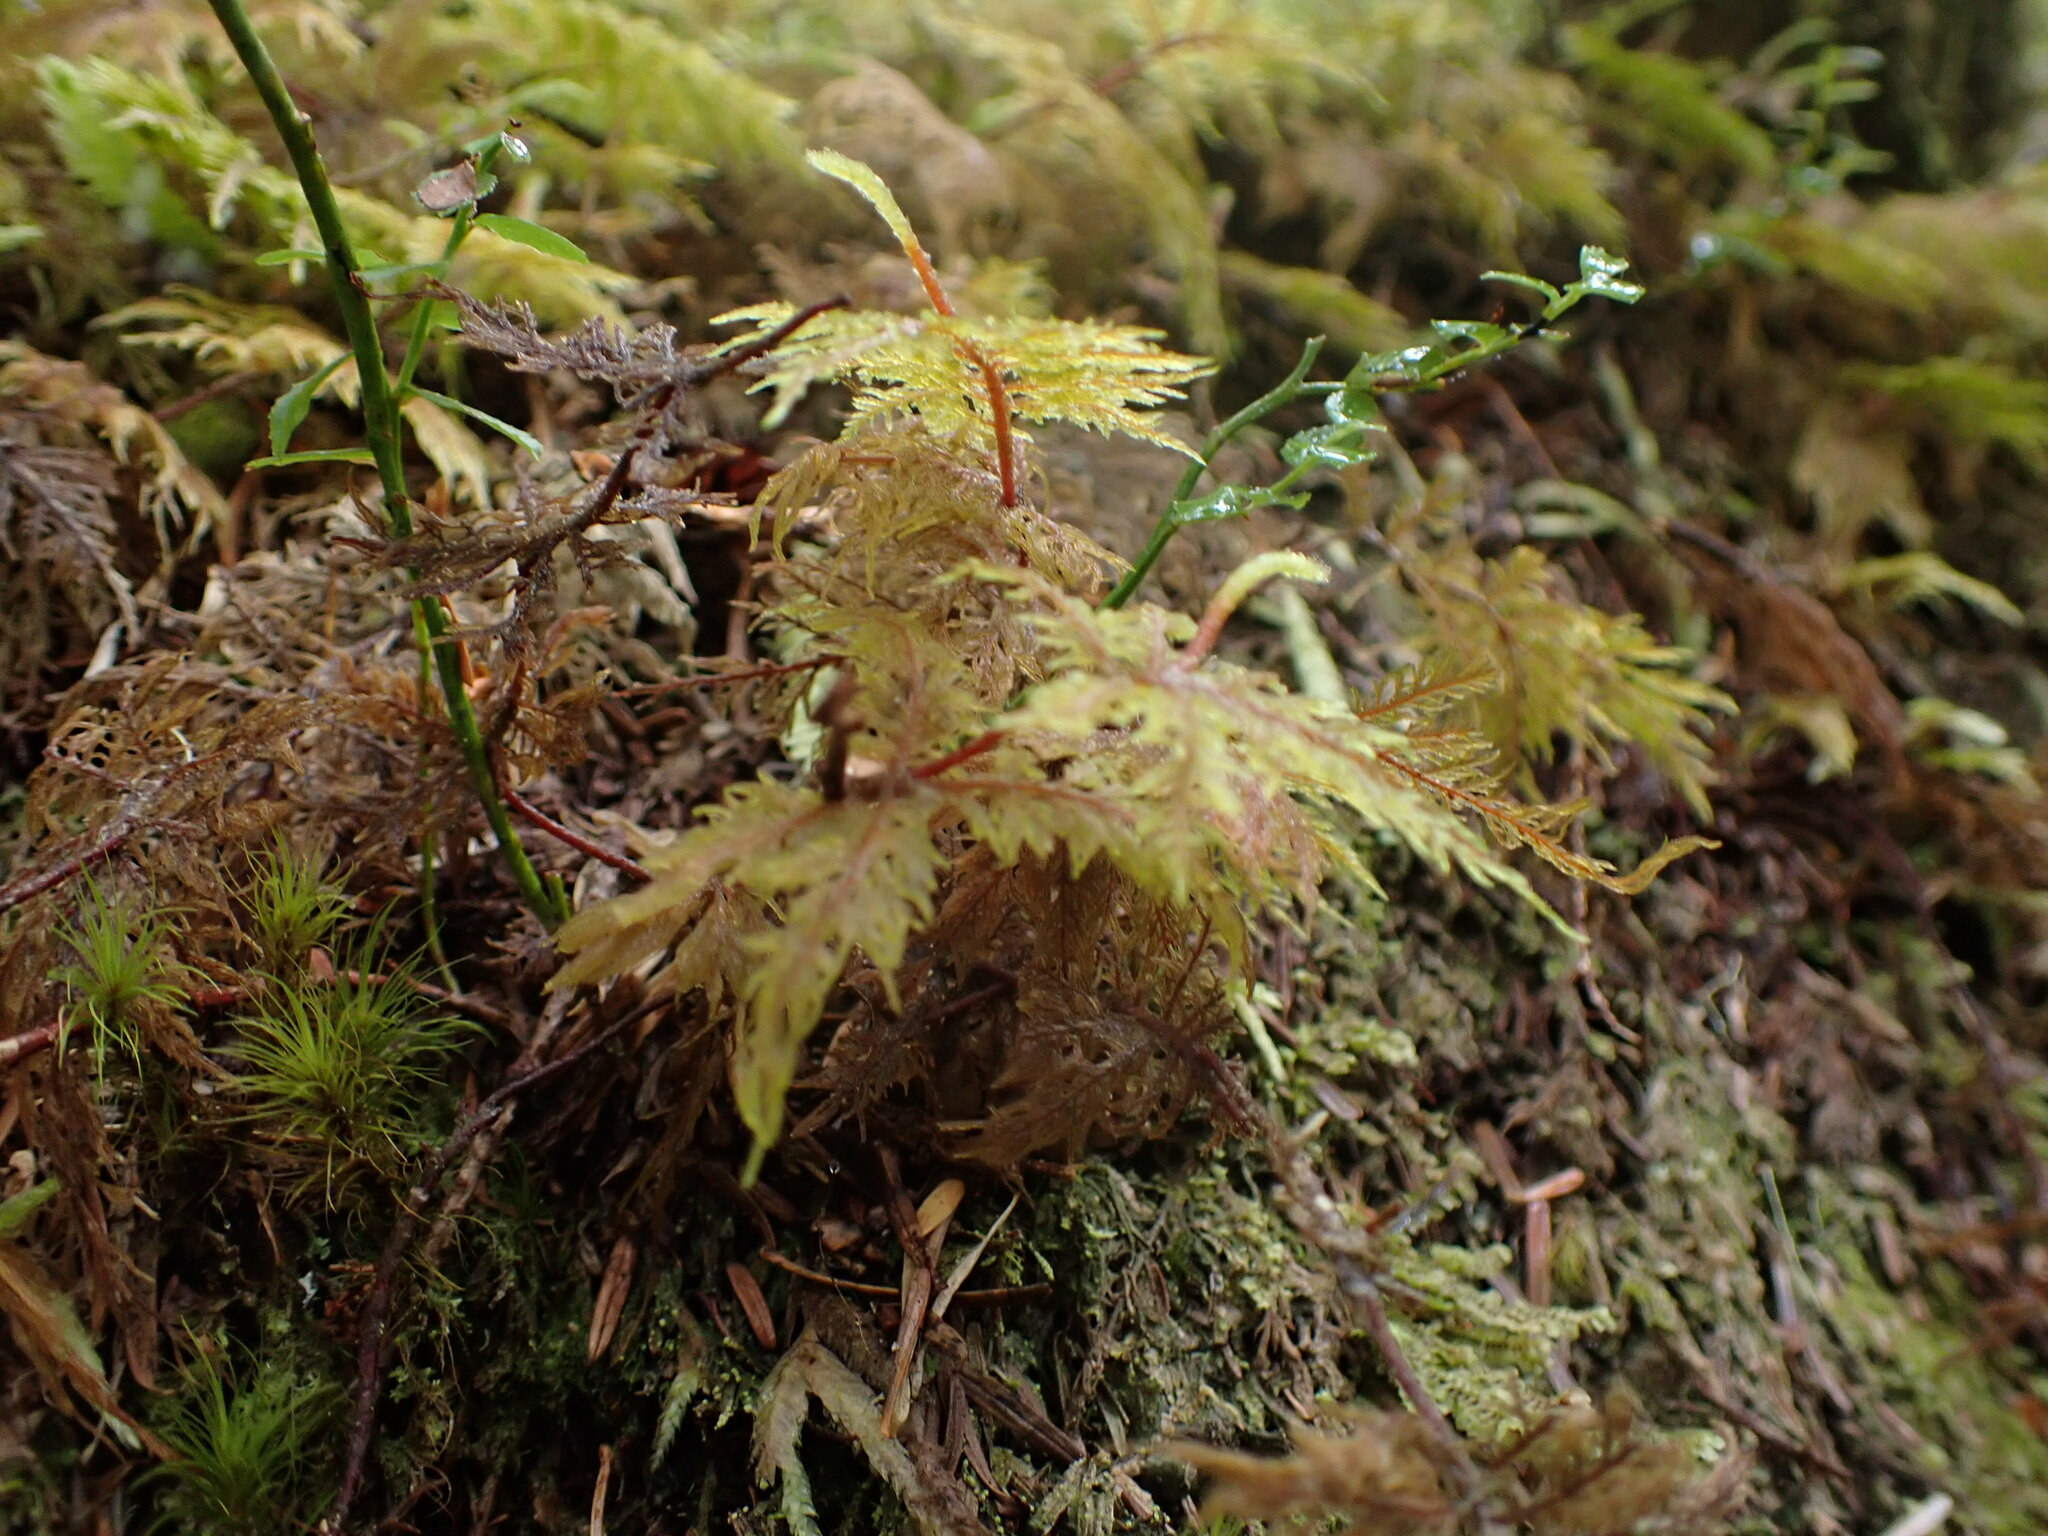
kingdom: Plantae
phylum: Bryophyta
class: Bryopsida
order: Hypnales
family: Hylocomiaceae
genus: Hylocomium
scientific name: Hylocomium splendens
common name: Stairstep moss
